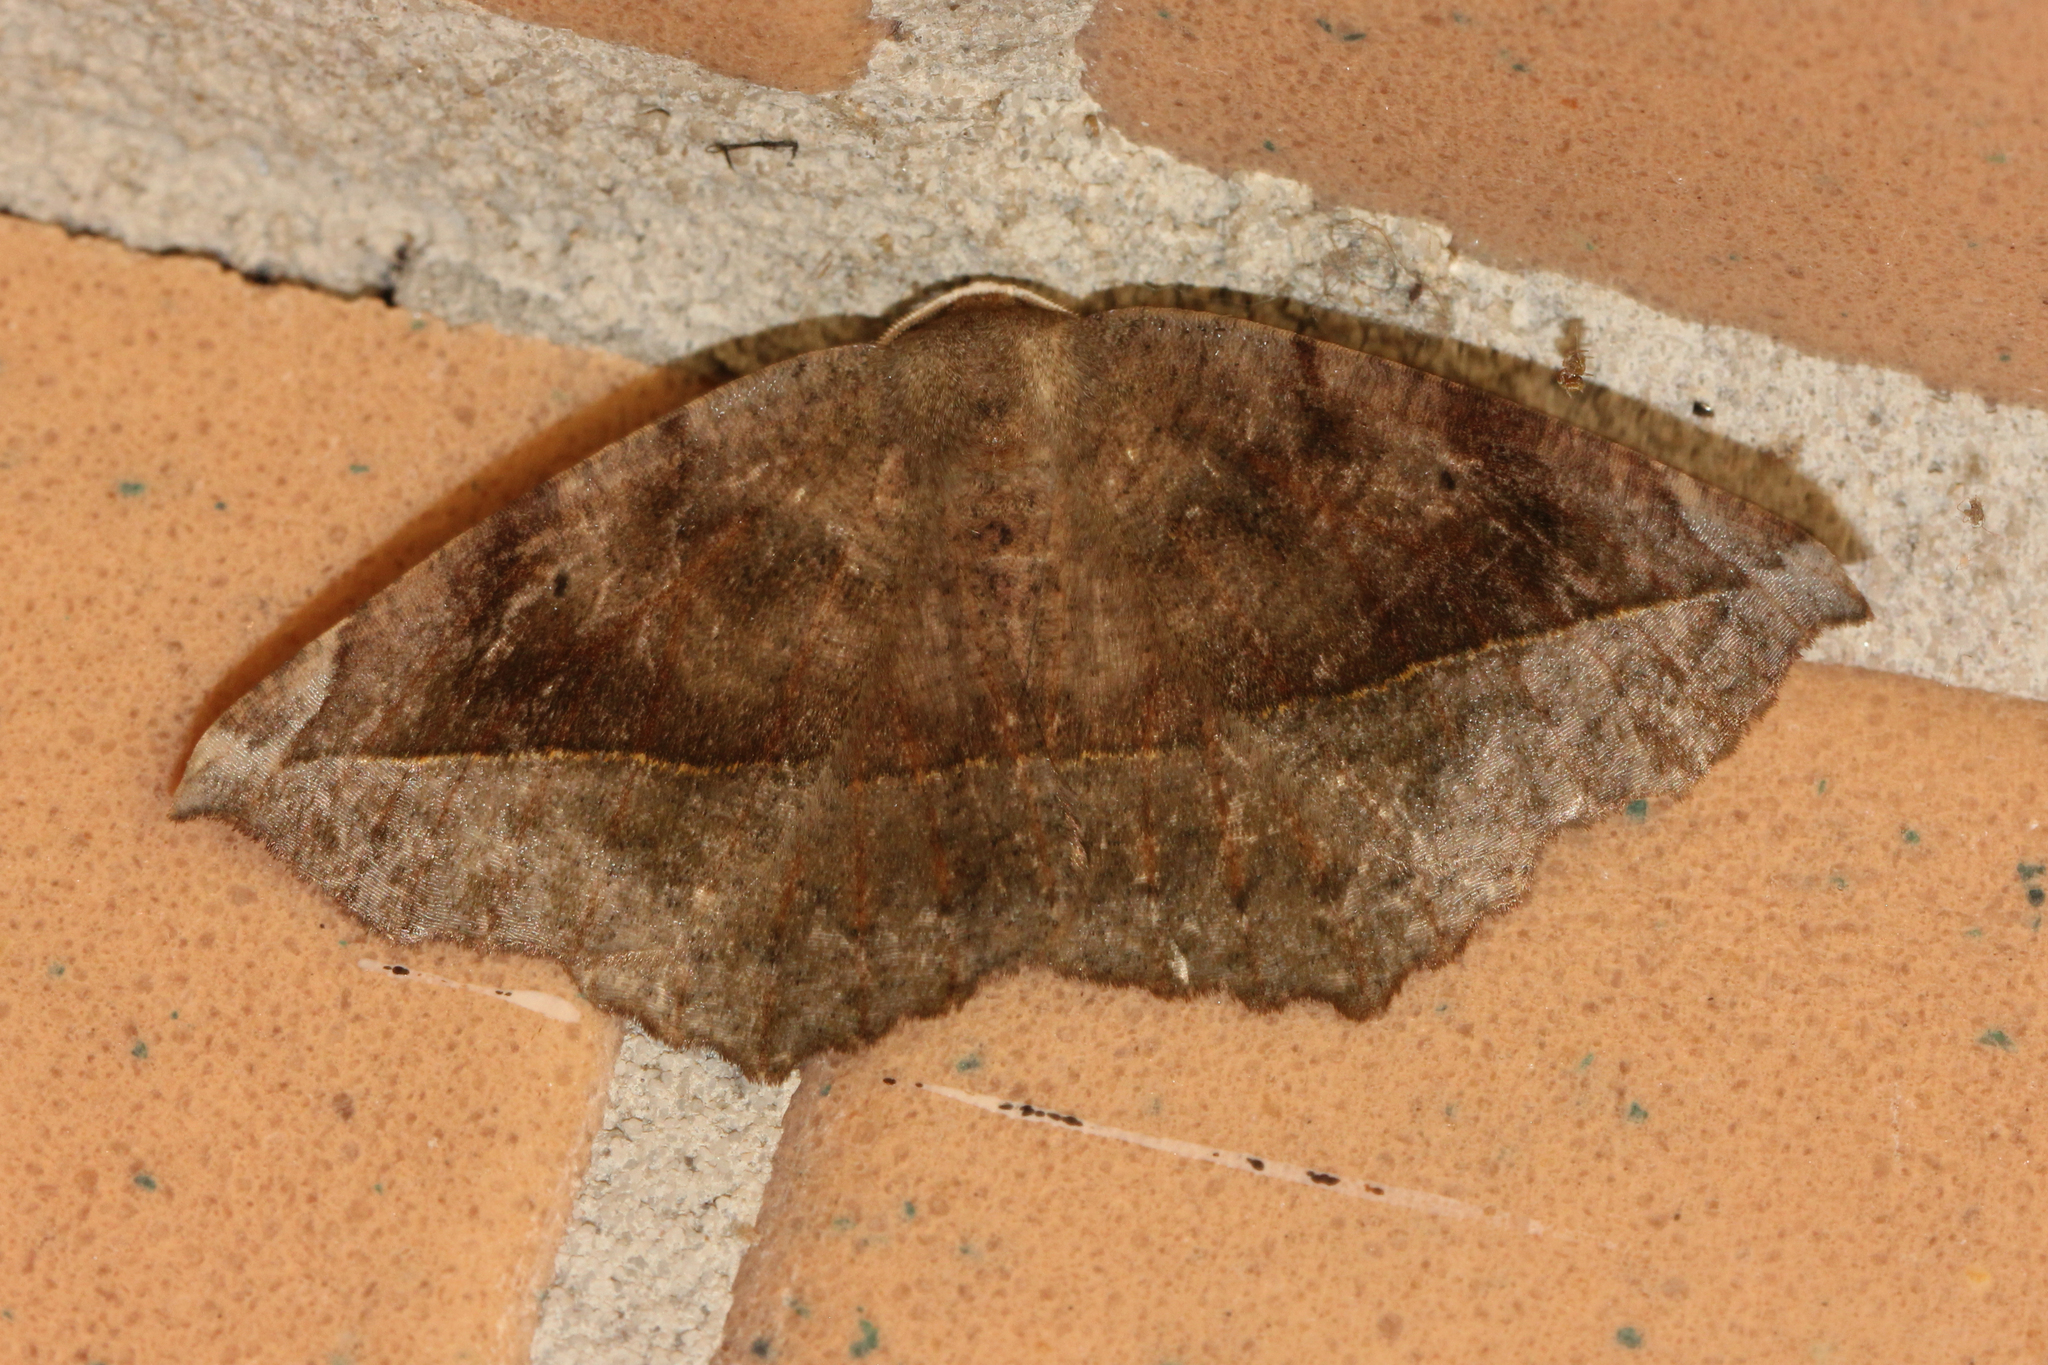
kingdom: Animalia
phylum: Arthropoda
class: Insecta
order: Lepidoptera
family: Geometridae
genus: Eutrapela
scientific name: Eutrapela clemataria
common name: Curved-toothed geometer
